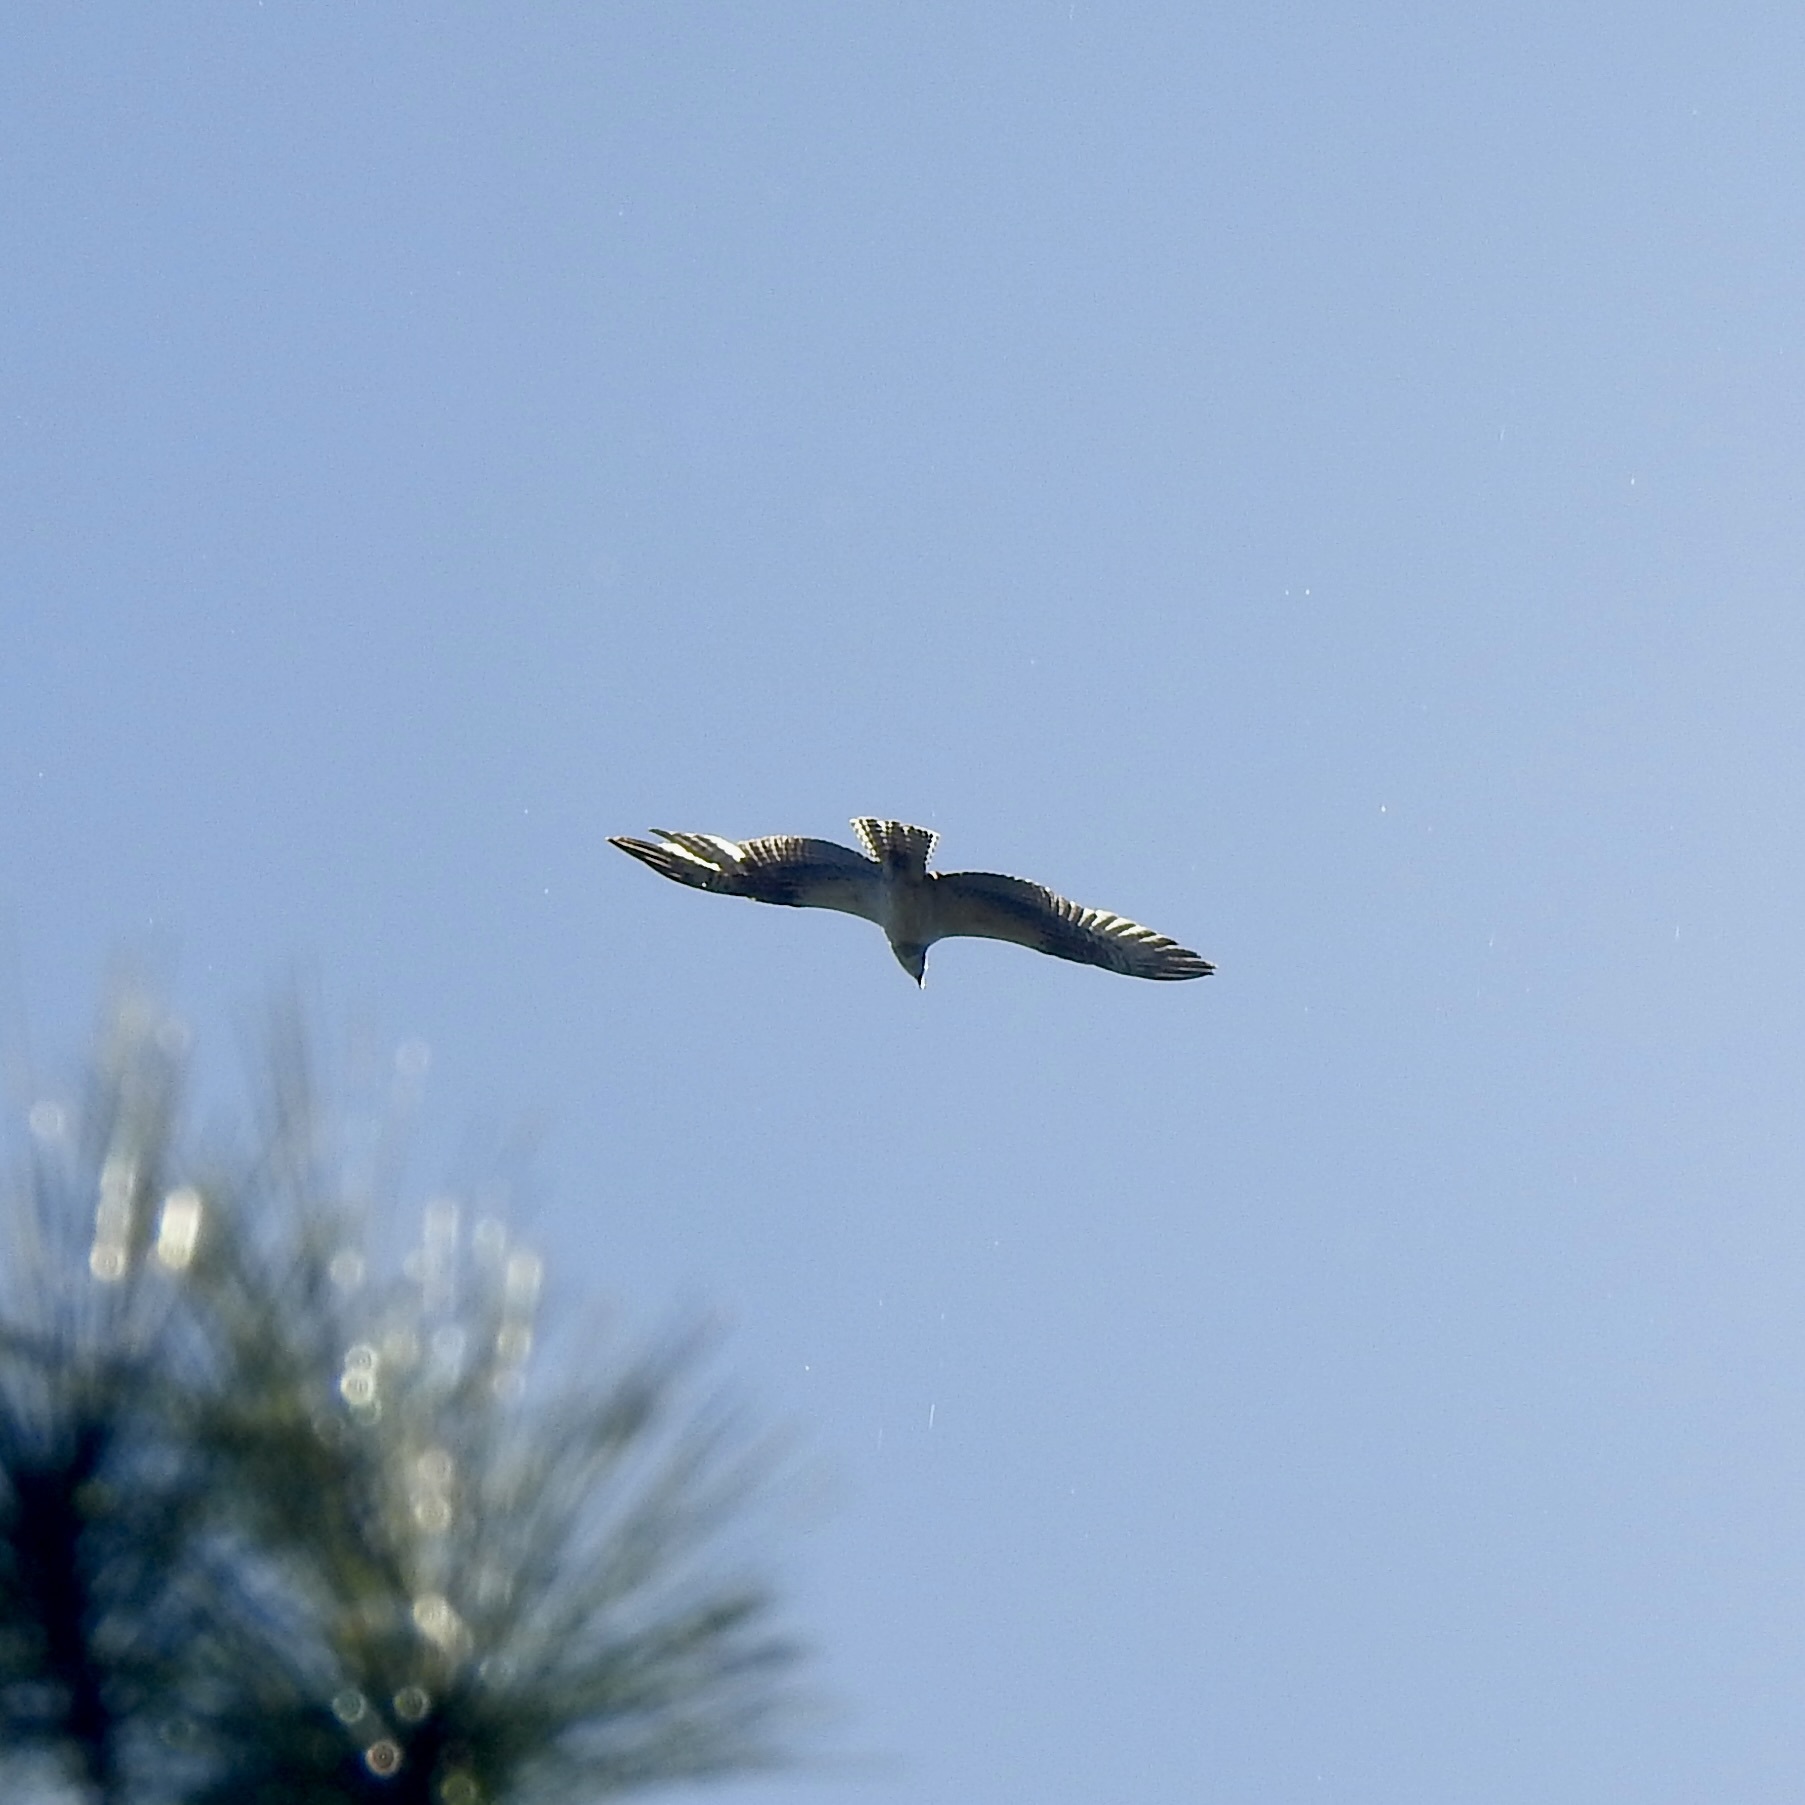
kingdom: Animalia
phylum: Chordata
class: Aves
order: Accipitriformes
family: Pandionidae
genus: Pandion
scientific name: Pandion haliaetus
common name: Osprey
